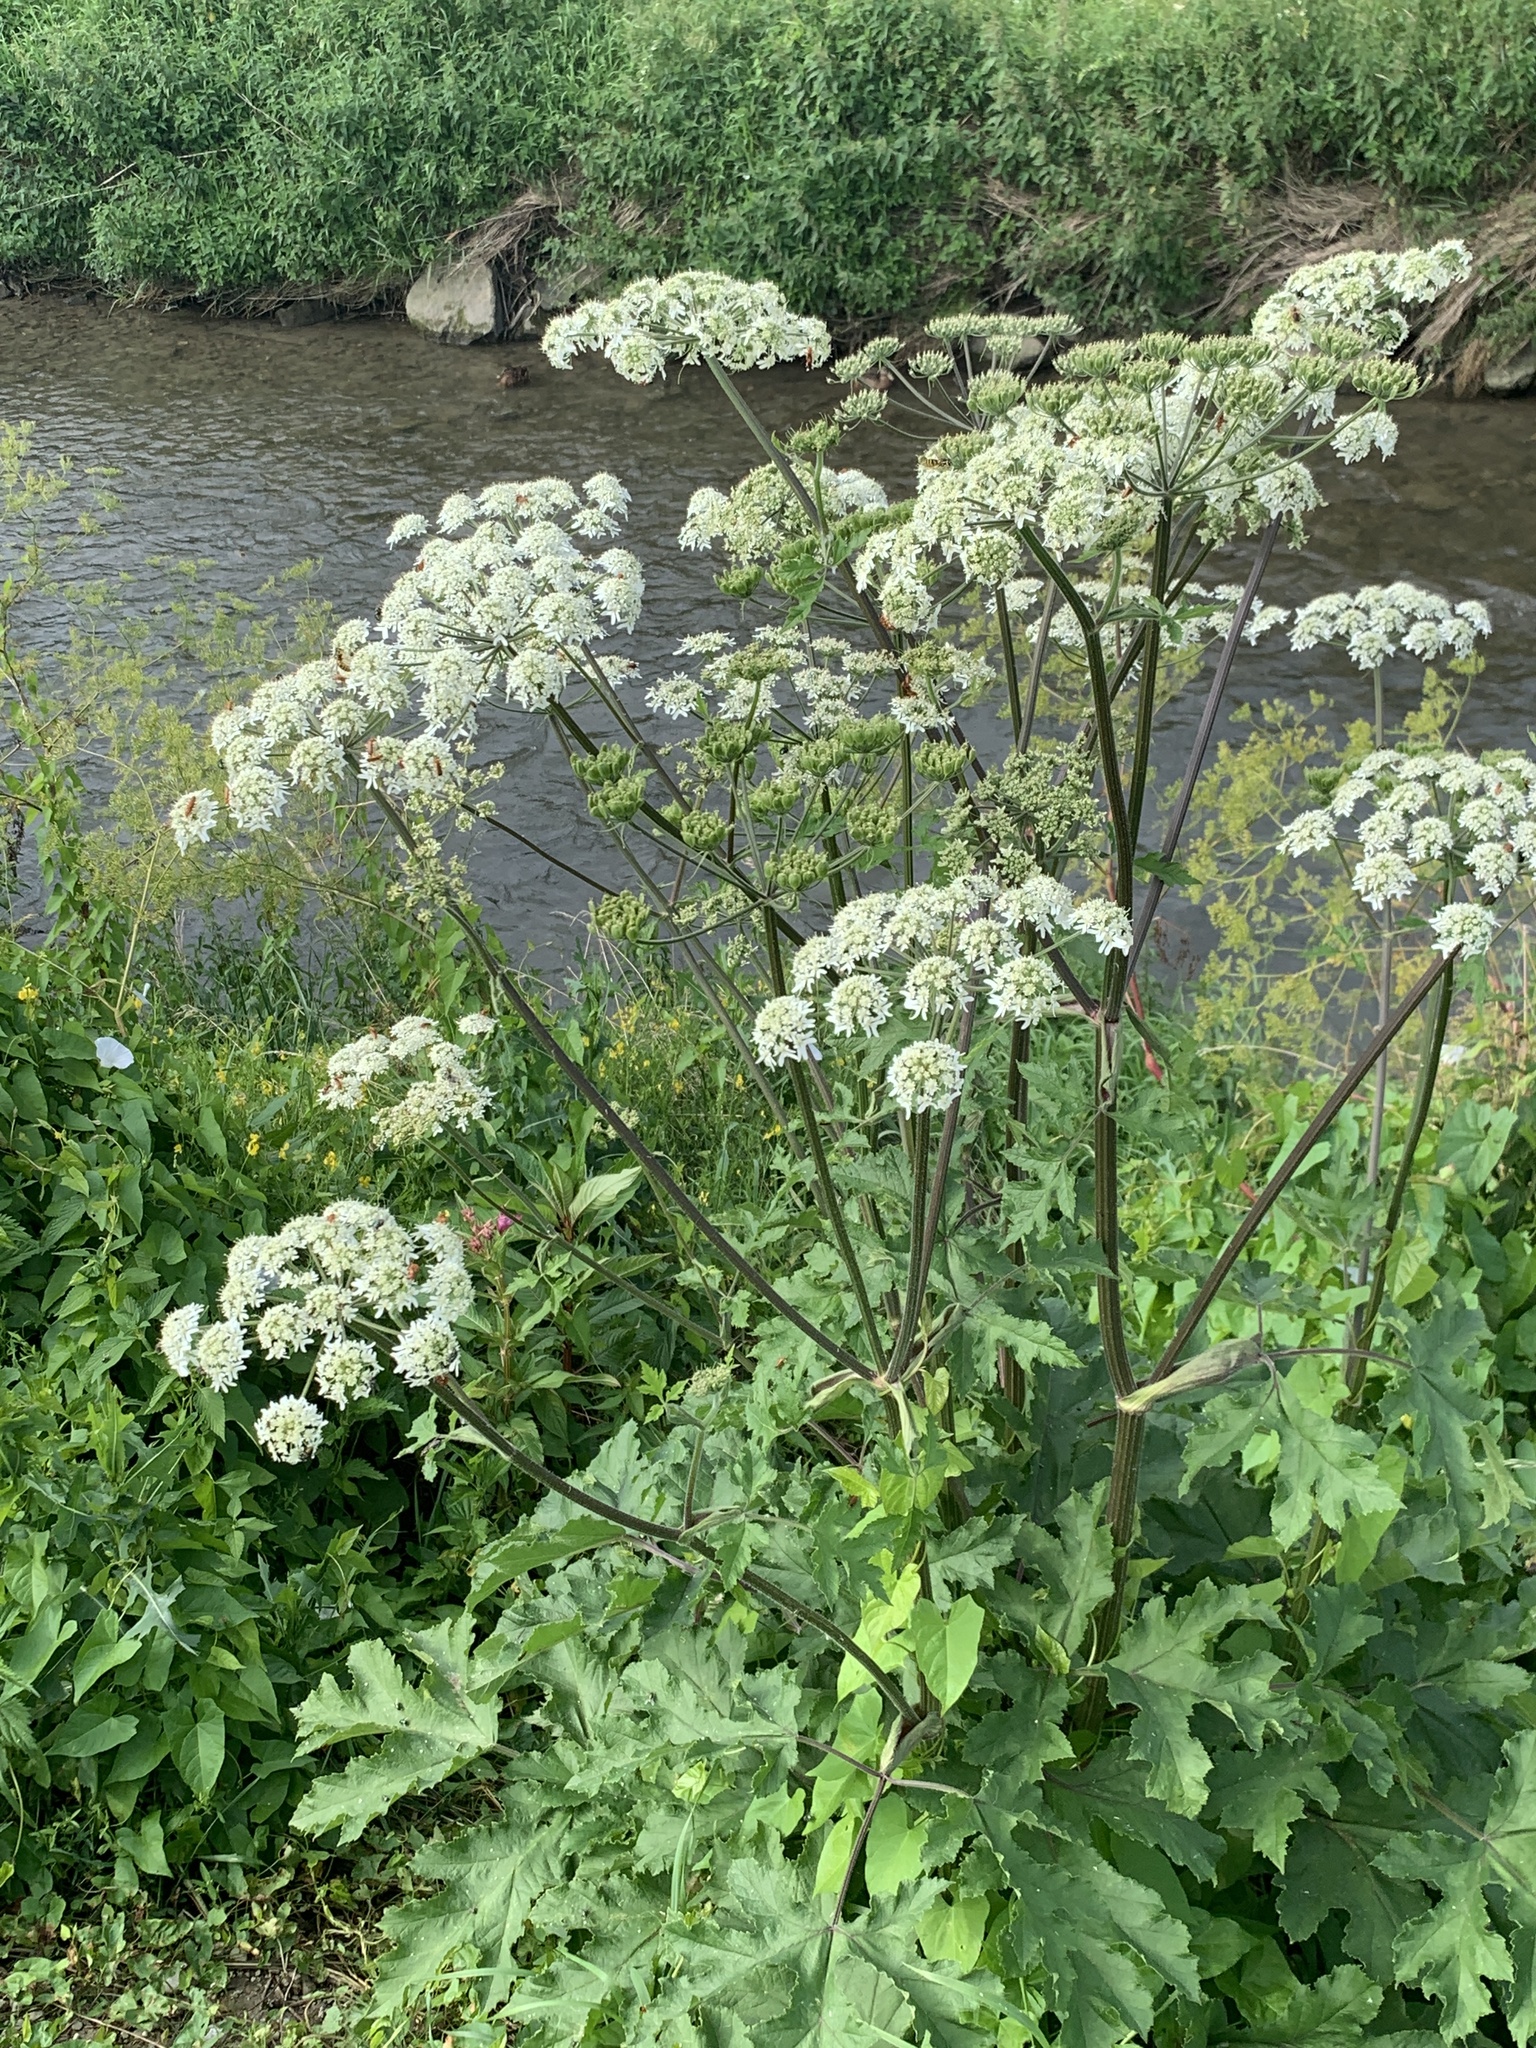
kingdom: Plantae
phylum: Tracheophyta
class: Magnoliopsida
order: Apiales
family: Apiaceae
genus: Heracleum
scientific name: Heracleum sphondylium
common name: Hogweed
